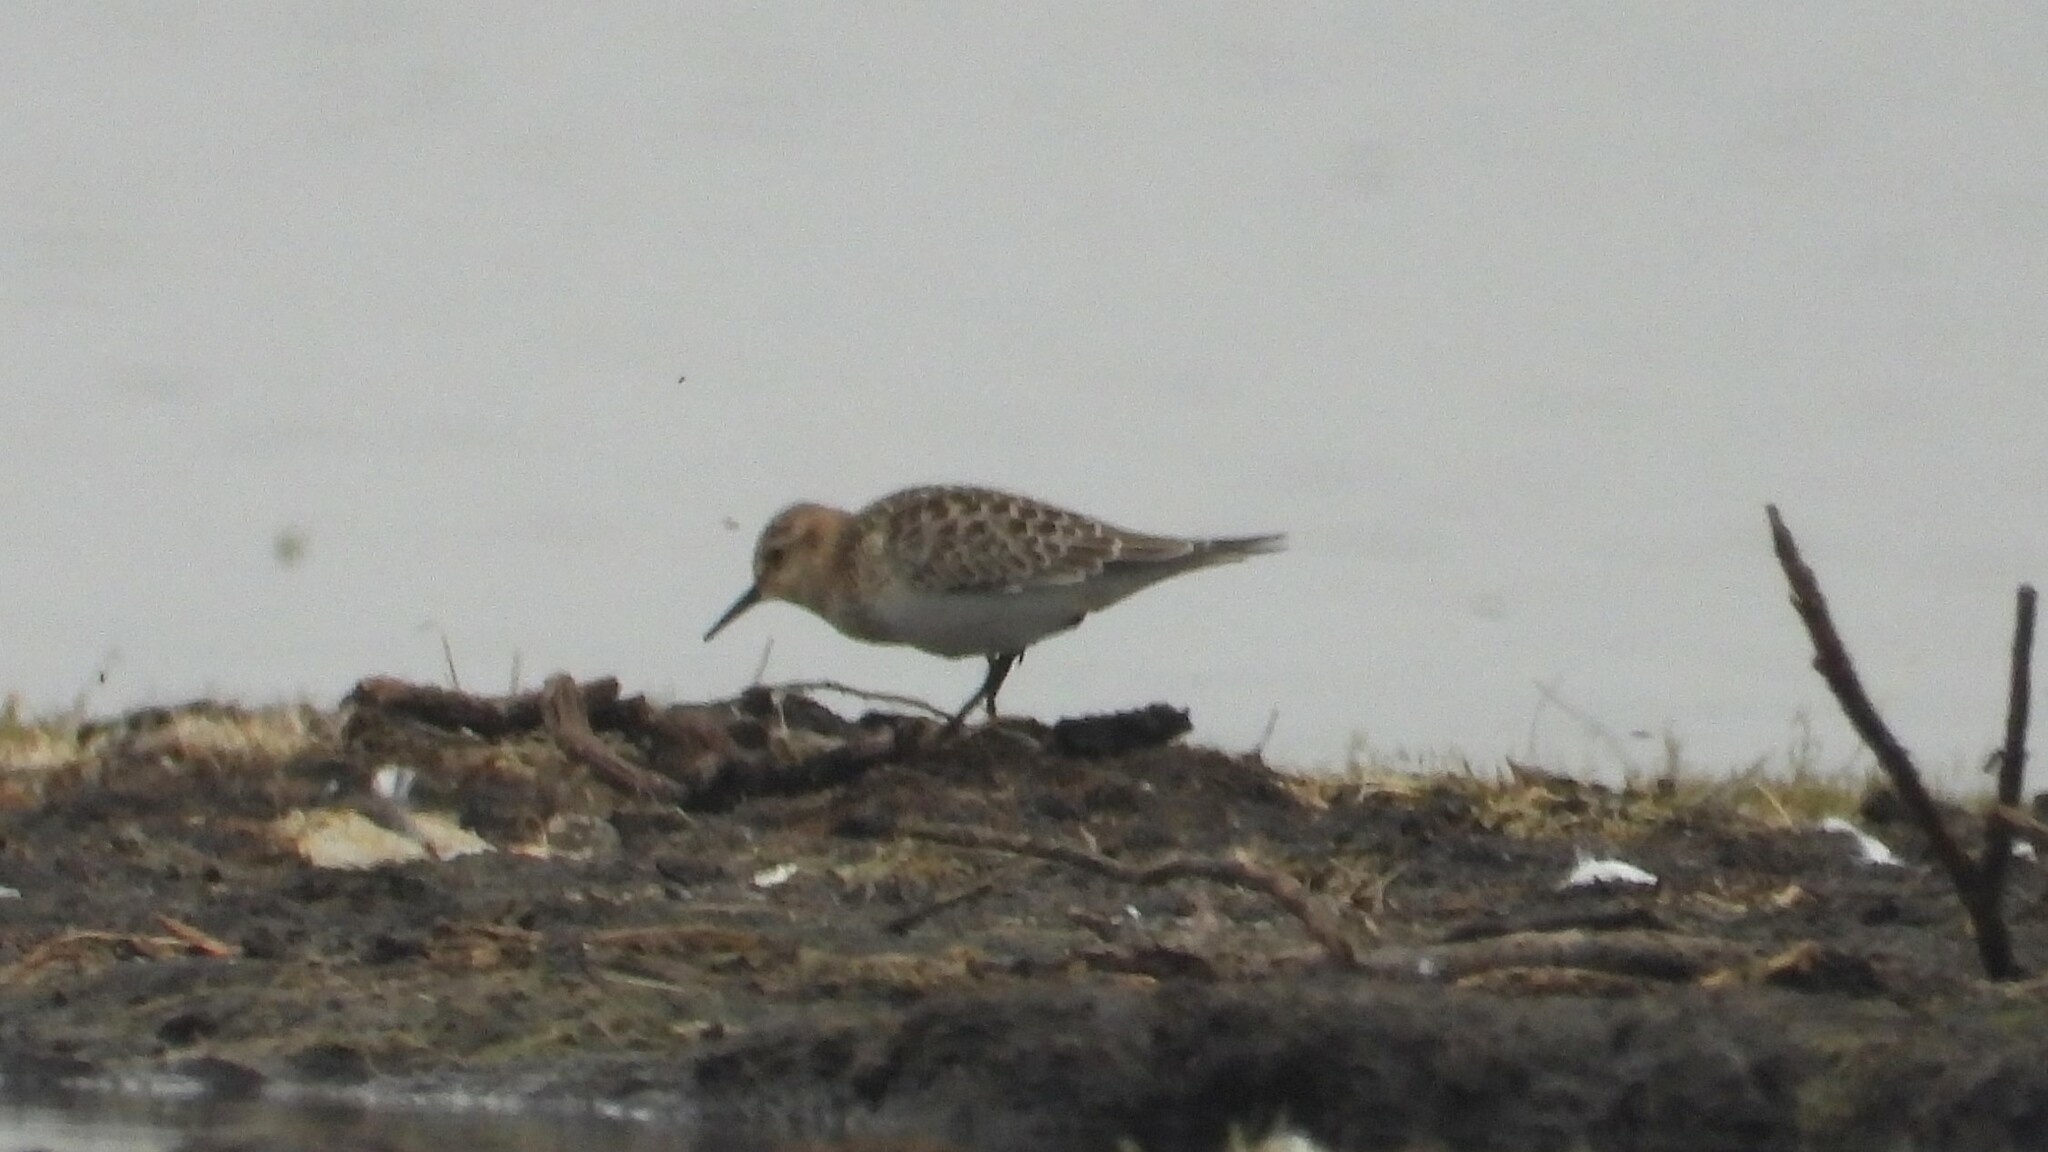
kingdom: Animalia
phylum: Chordata
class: Aves
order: Charadriiformes
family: Scolopacidae
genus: Calidris
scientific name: Calidris bairdii
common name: Baird's sandpiper
